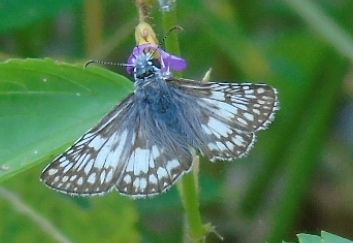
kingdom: Animalia
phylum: Arthropoda
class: Insecta
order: Lepidoptera
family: Hesperiidae
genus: Burnsius
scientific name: Burnsius
